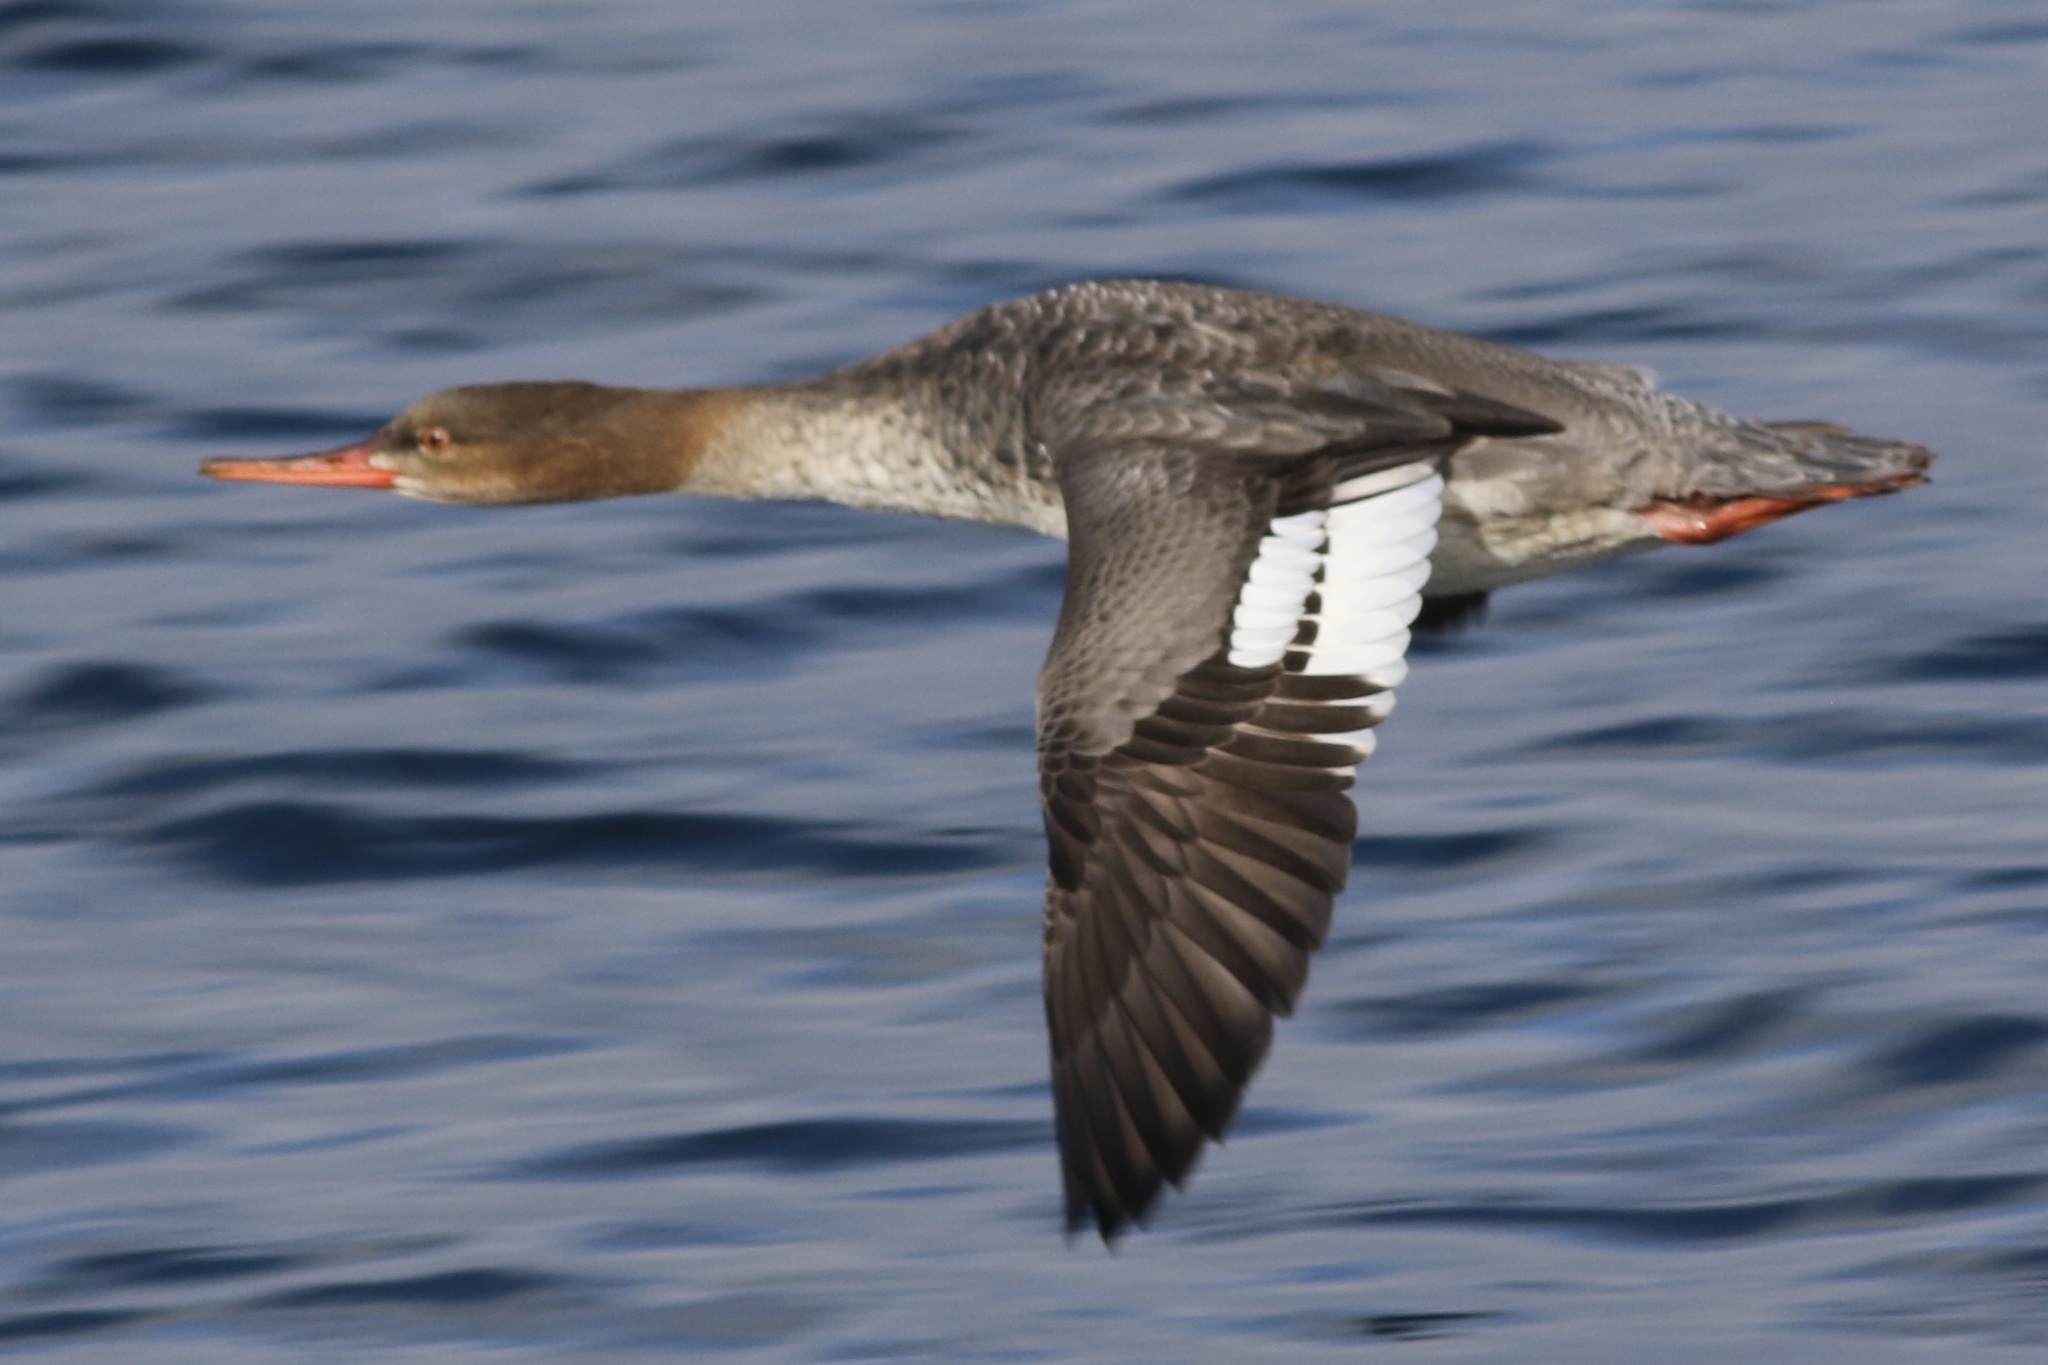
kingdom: Animalia
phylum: Chordata
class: Aves
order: Anseriformes
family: Anatidae
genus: Mergus
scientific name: Mergus serrator
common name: Red-breasted merganser
